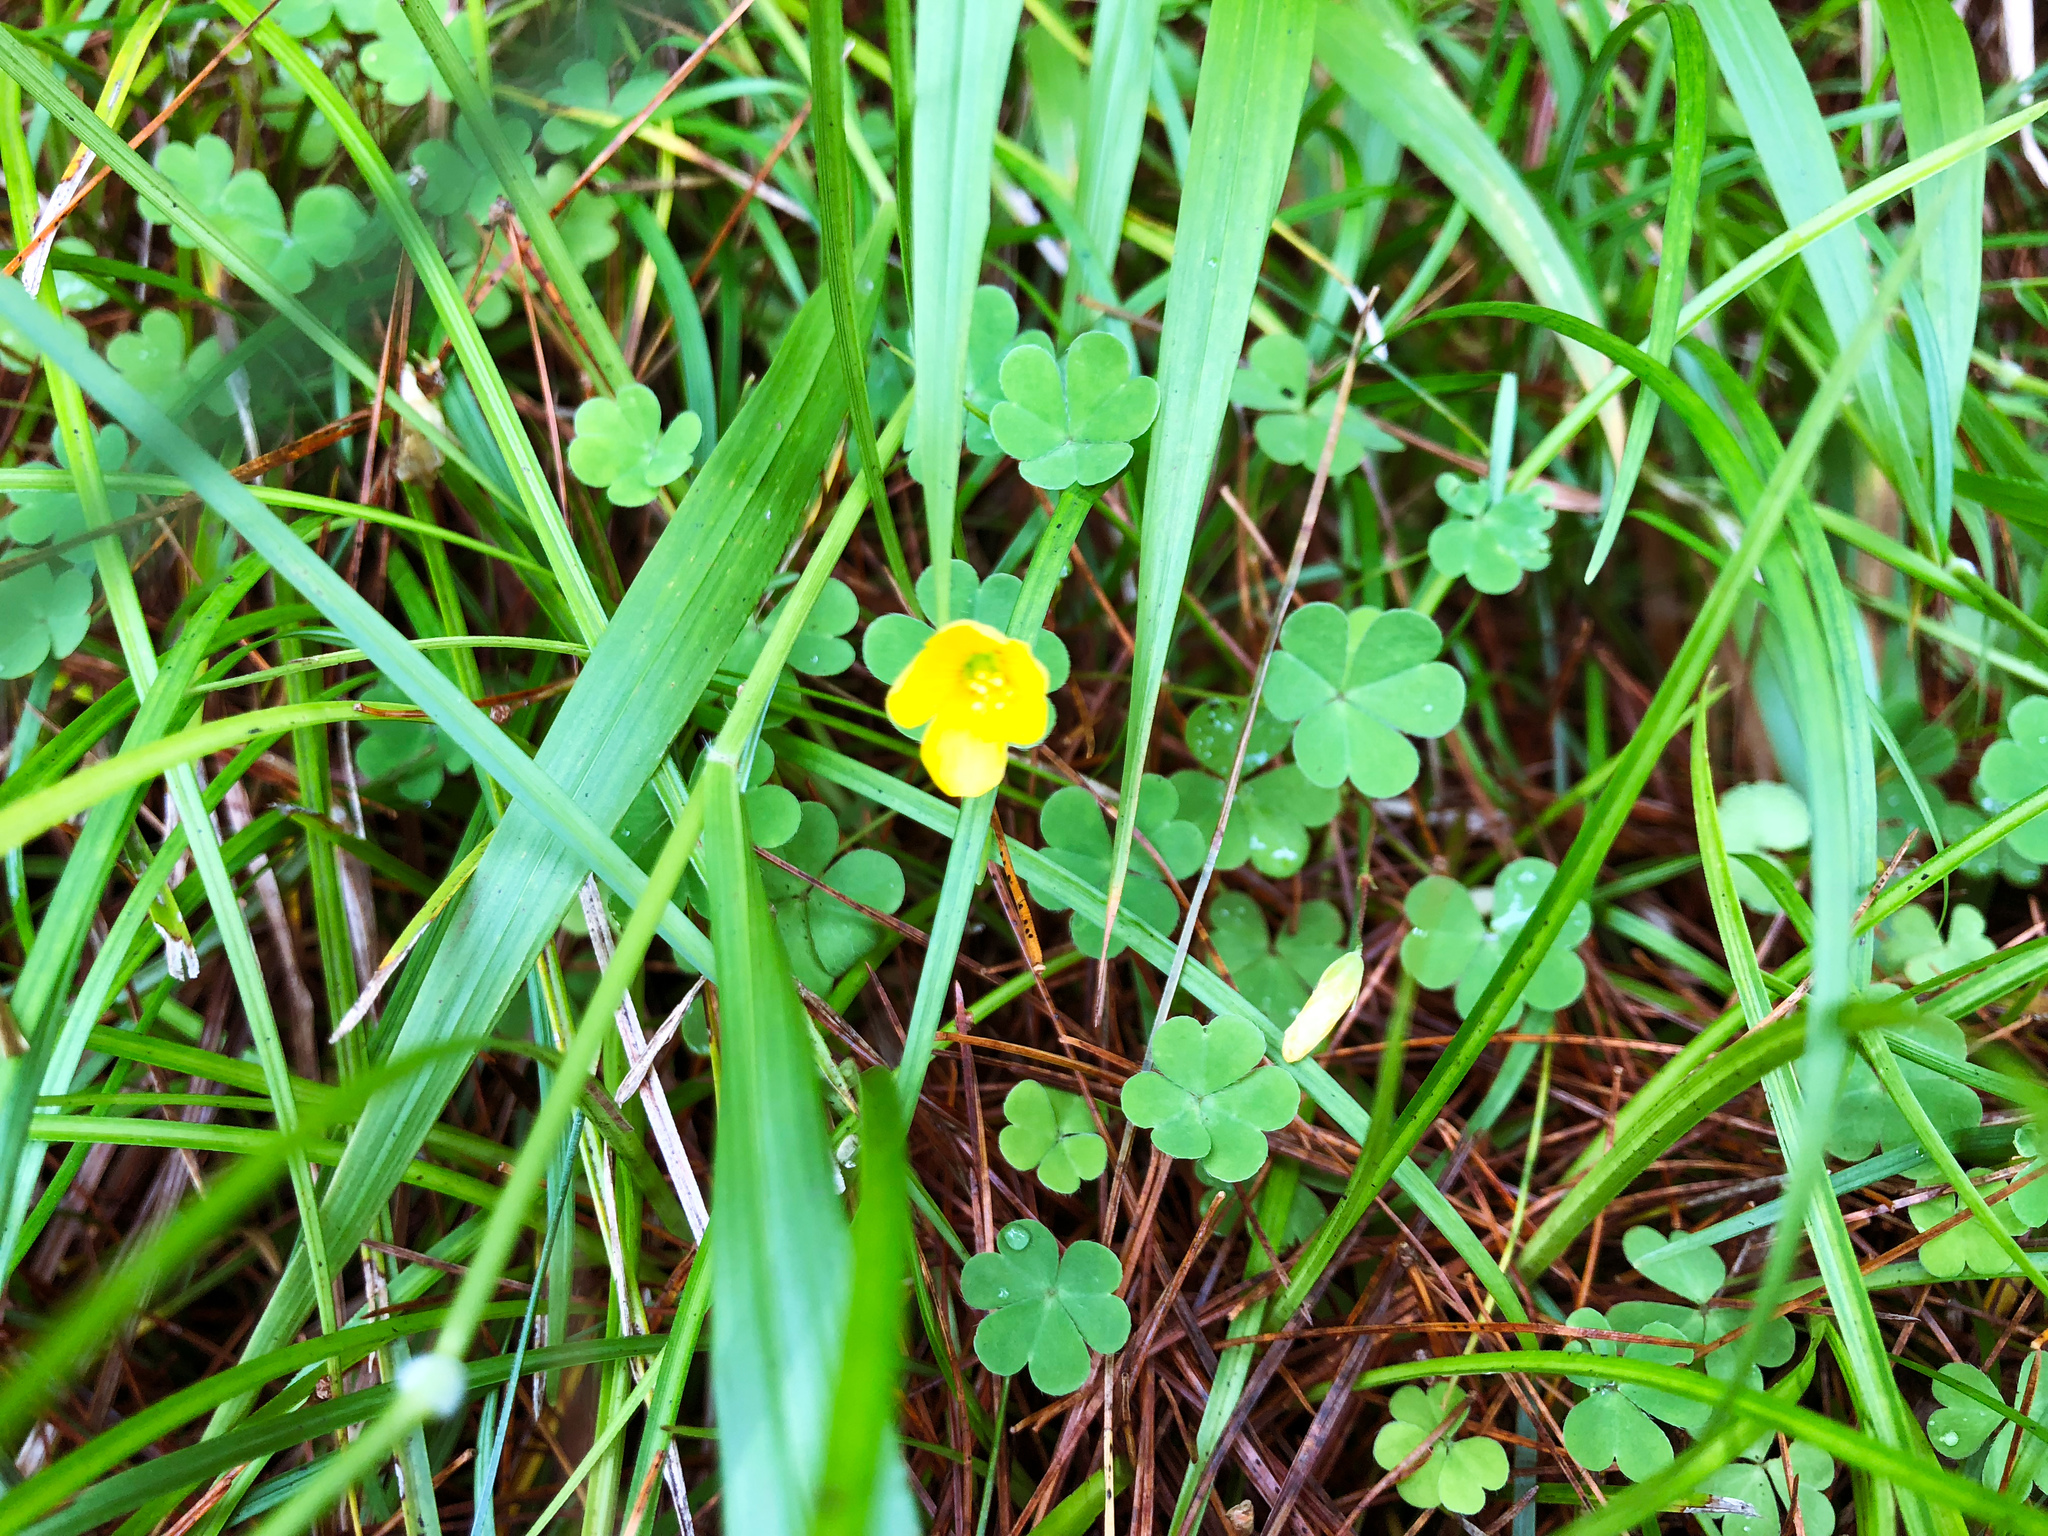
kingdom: Plantae
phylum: Tracheophyta
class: Magnoliopsida
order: Oxalidales
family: Oxalidaceae
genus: Oxalis
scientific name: Oxalis corniculata
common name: Procumbent yellow-sorrel
